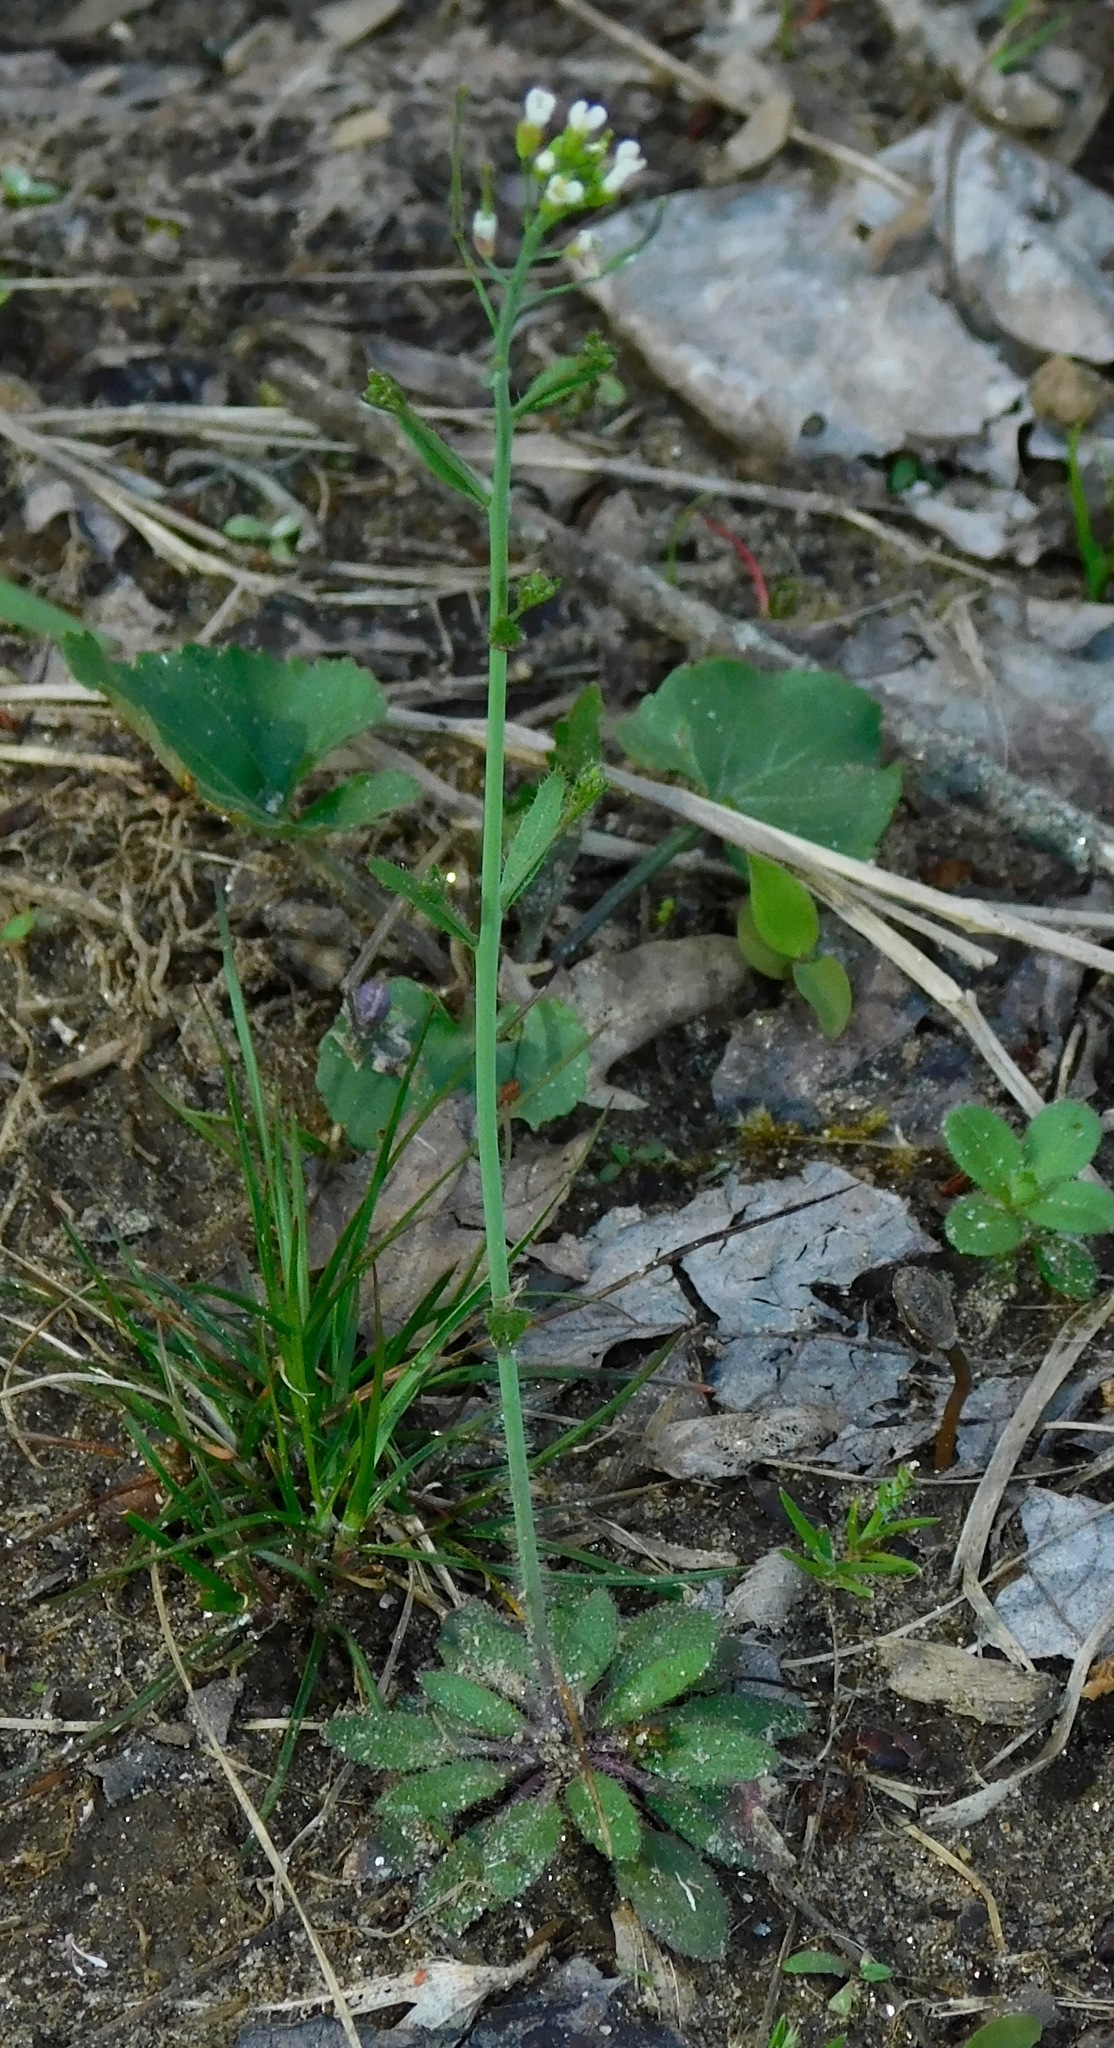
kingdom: Plantae
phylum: Tracheophyta
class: Magnoliopsida
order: Brassicales
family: Brassicaceae
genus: Arabidopsis
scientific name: Arabidopsis thaliana
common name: Thale cress
